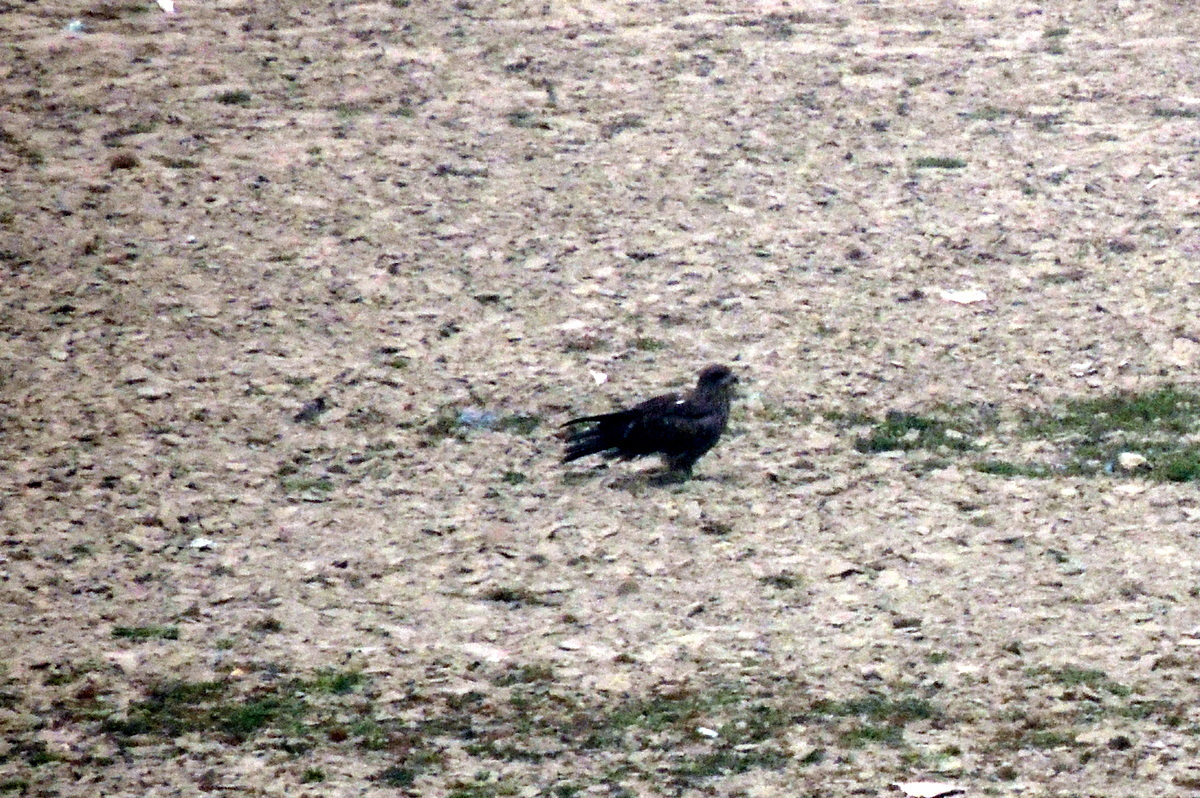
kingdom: Animalia
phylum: Chordata
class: Aves
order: Accipitriformes
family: Accipitridae
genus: Milvus
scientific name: Milvus migrans
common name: Black kite
